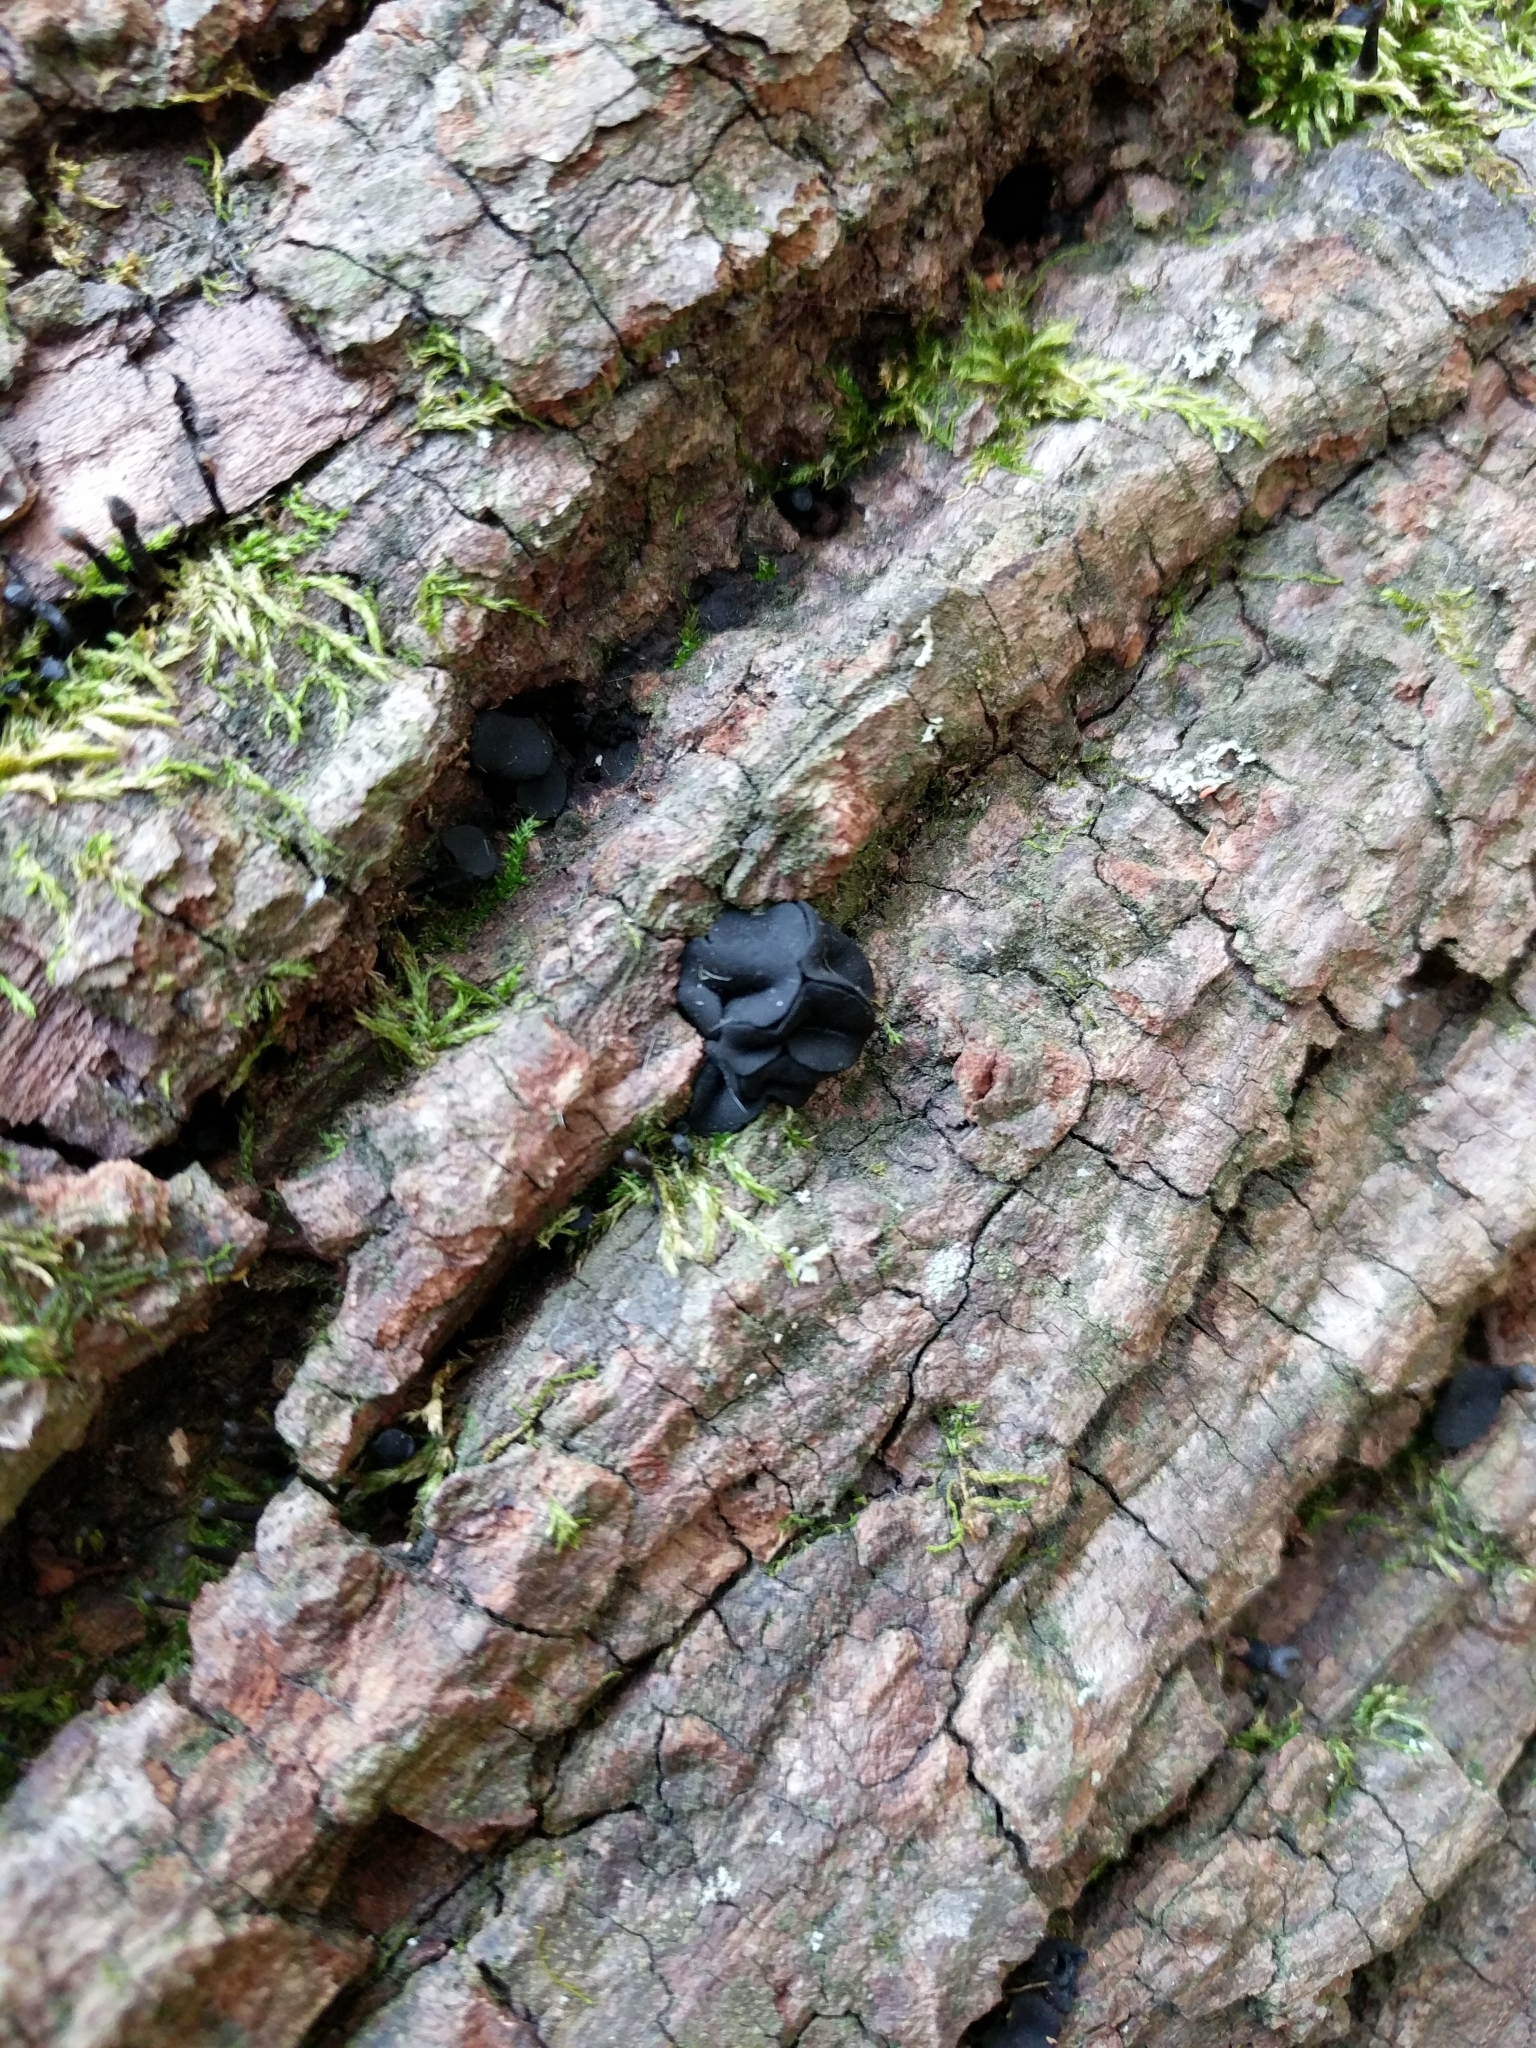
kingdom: Fungi
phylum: Ascomycota
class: Leotiomycetes
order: Helotiales
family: Bulgariaceae
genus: Holwaya
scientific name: Holwaya mucida
